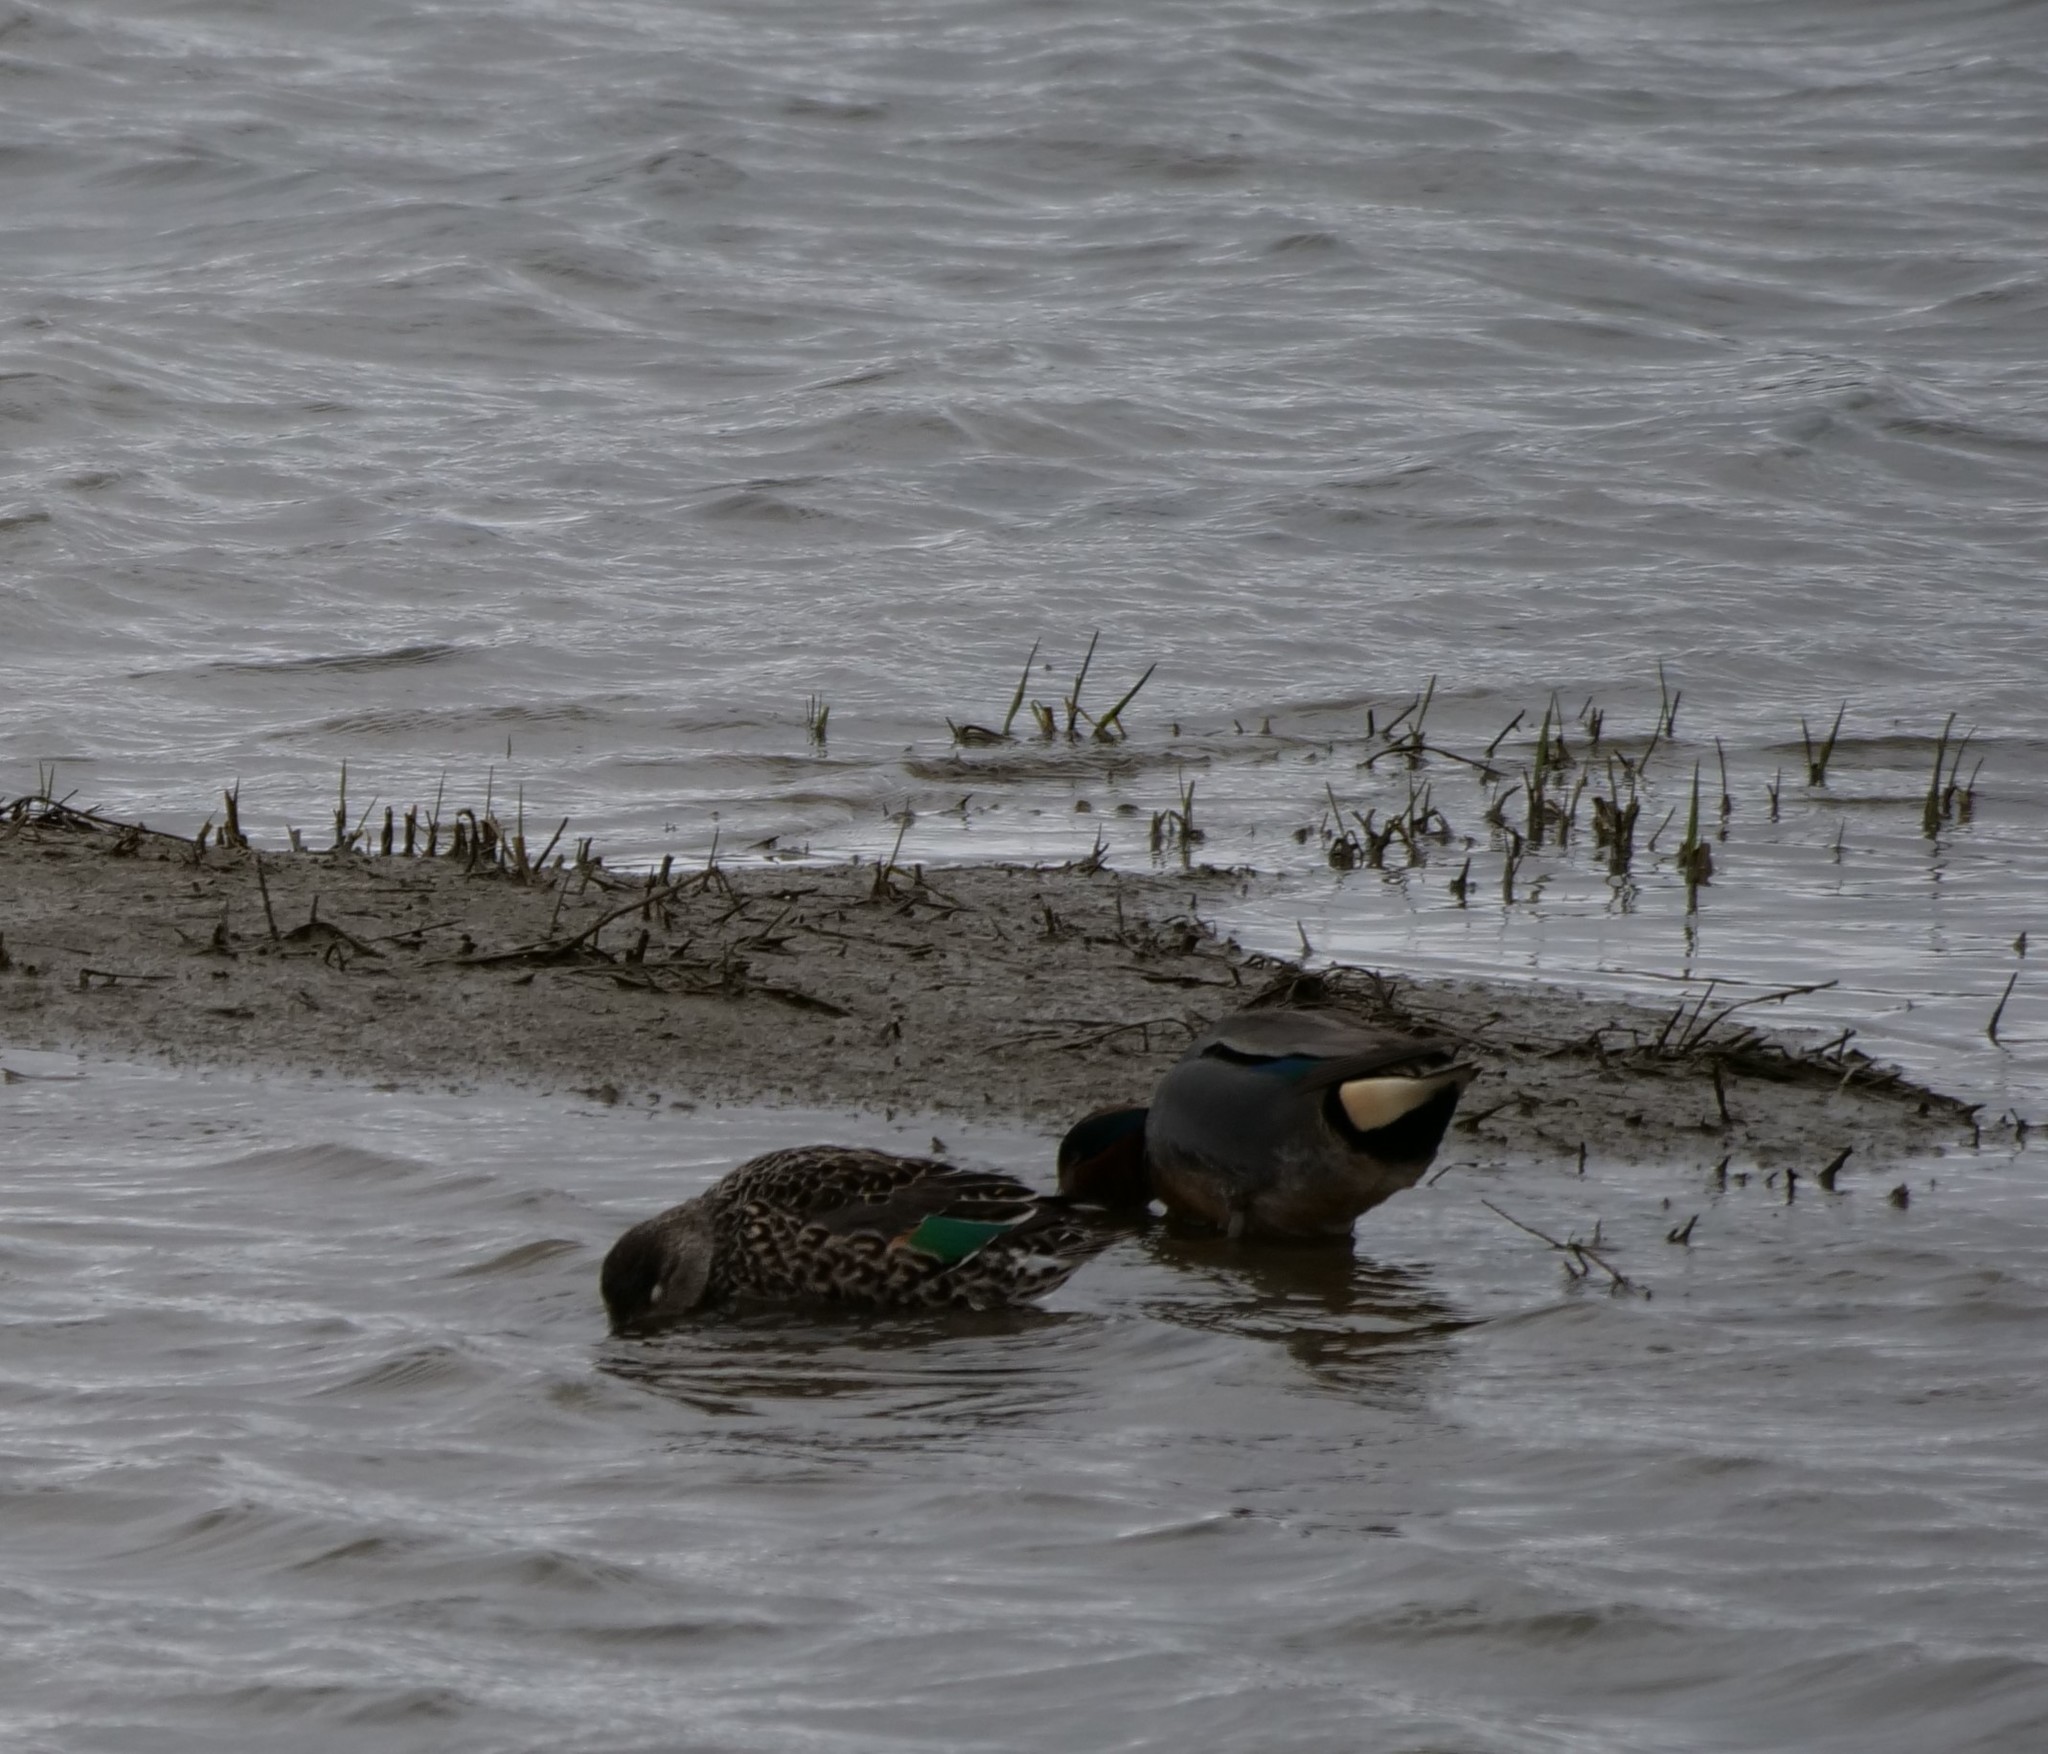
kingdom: Animalia
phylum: Chordata
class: Aves
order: Anseriformes
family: Anatidae
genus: Anas
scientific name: Anas crecca
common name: Eurasian teal
